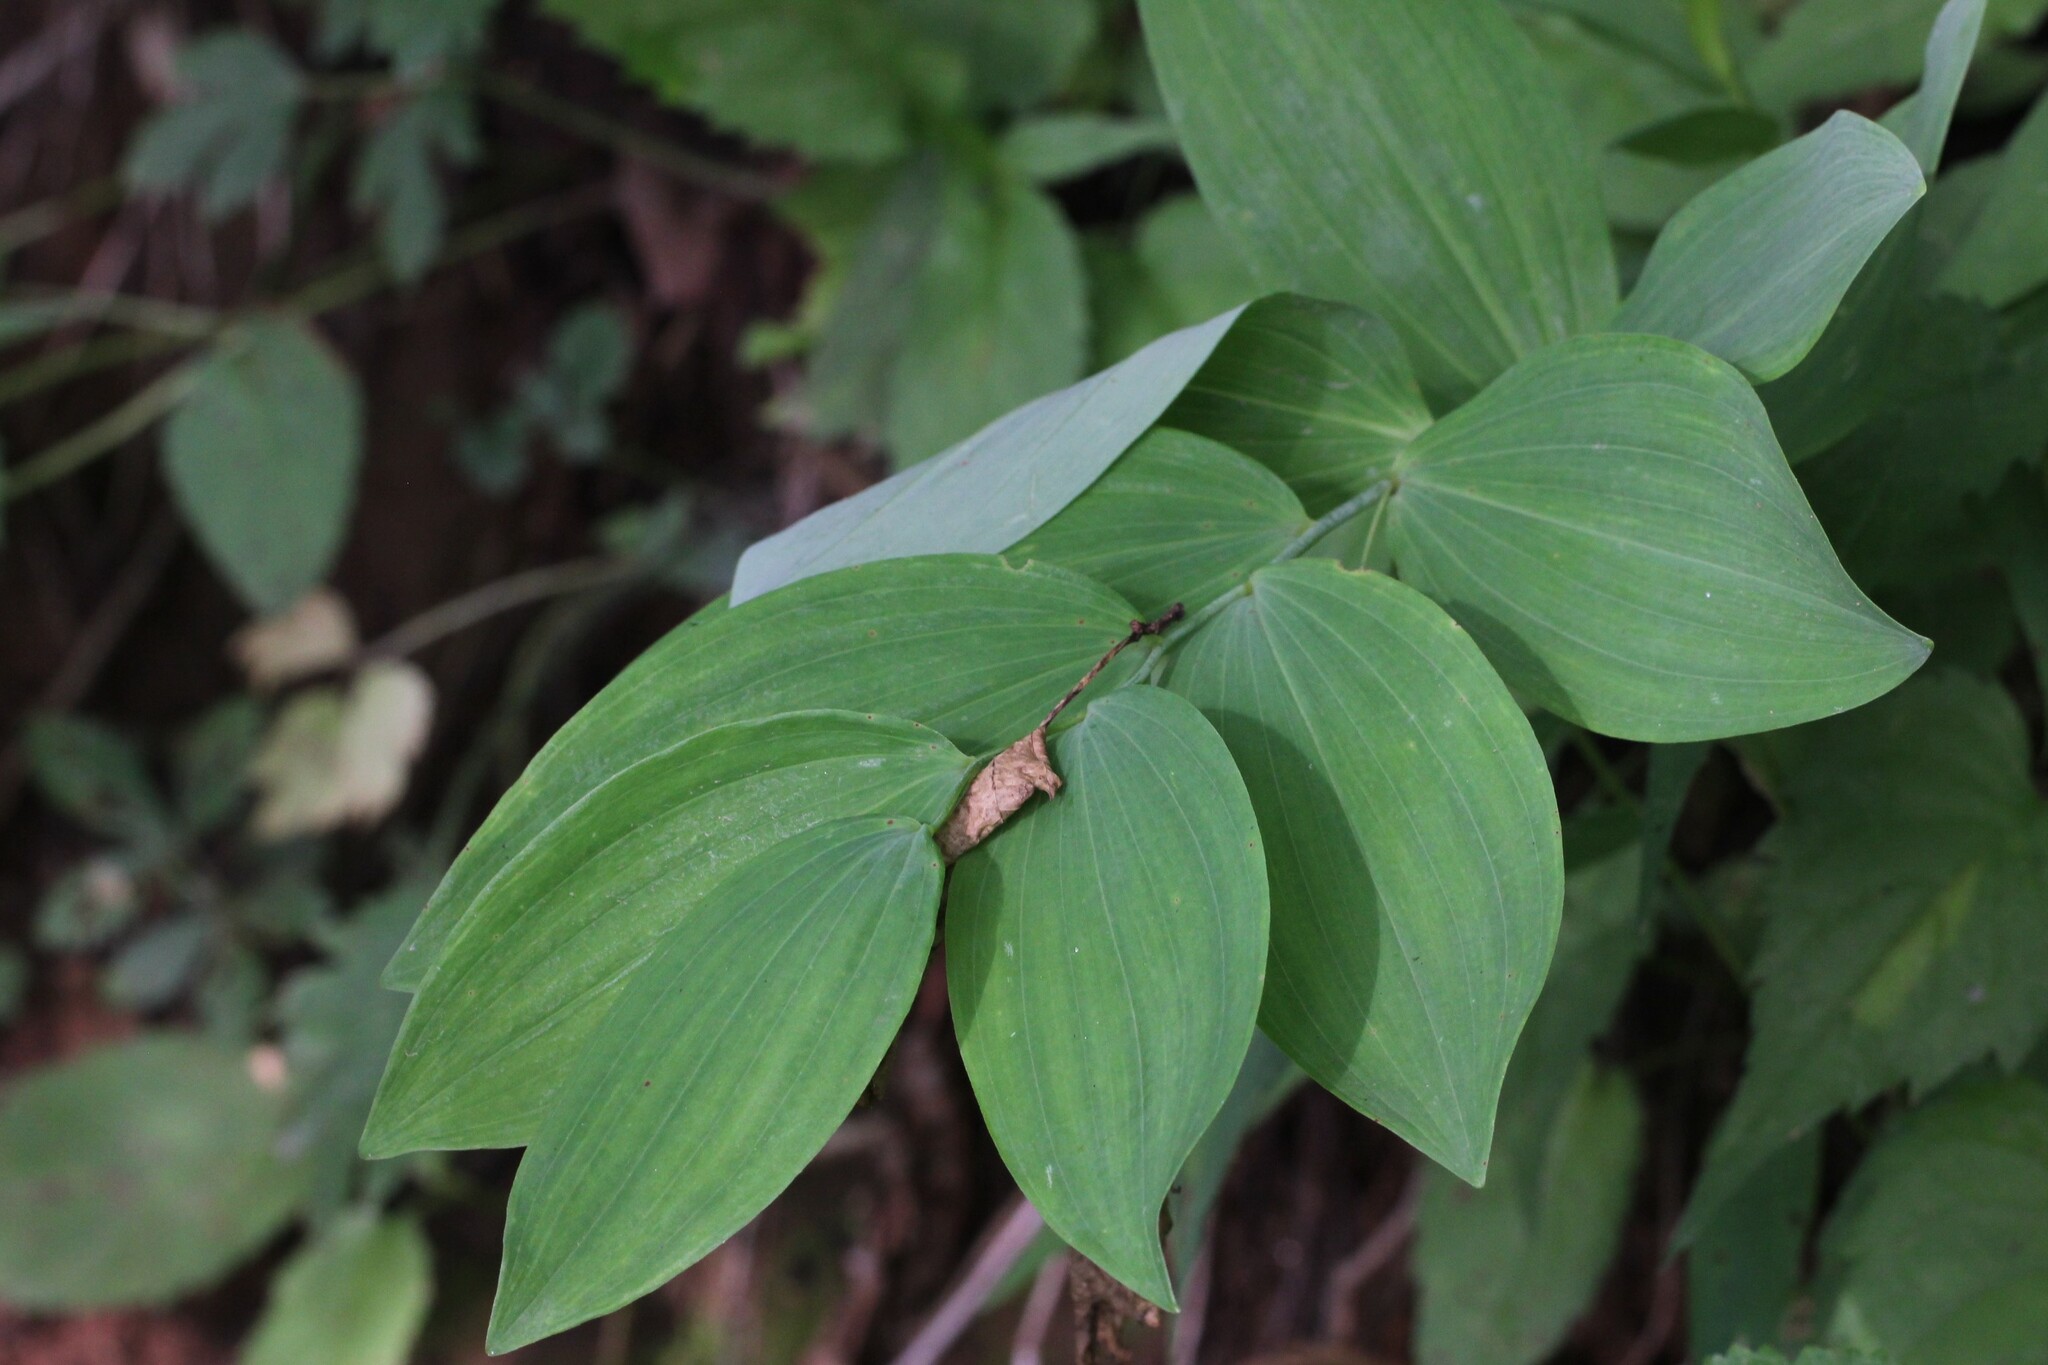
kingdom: Plantae
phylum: Tracheophyta
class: Liliopsida
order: Asparagales
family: Asparagaceae
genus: Polygonatum
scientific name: Polygonatum biflorum
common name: American solomon's-seal
